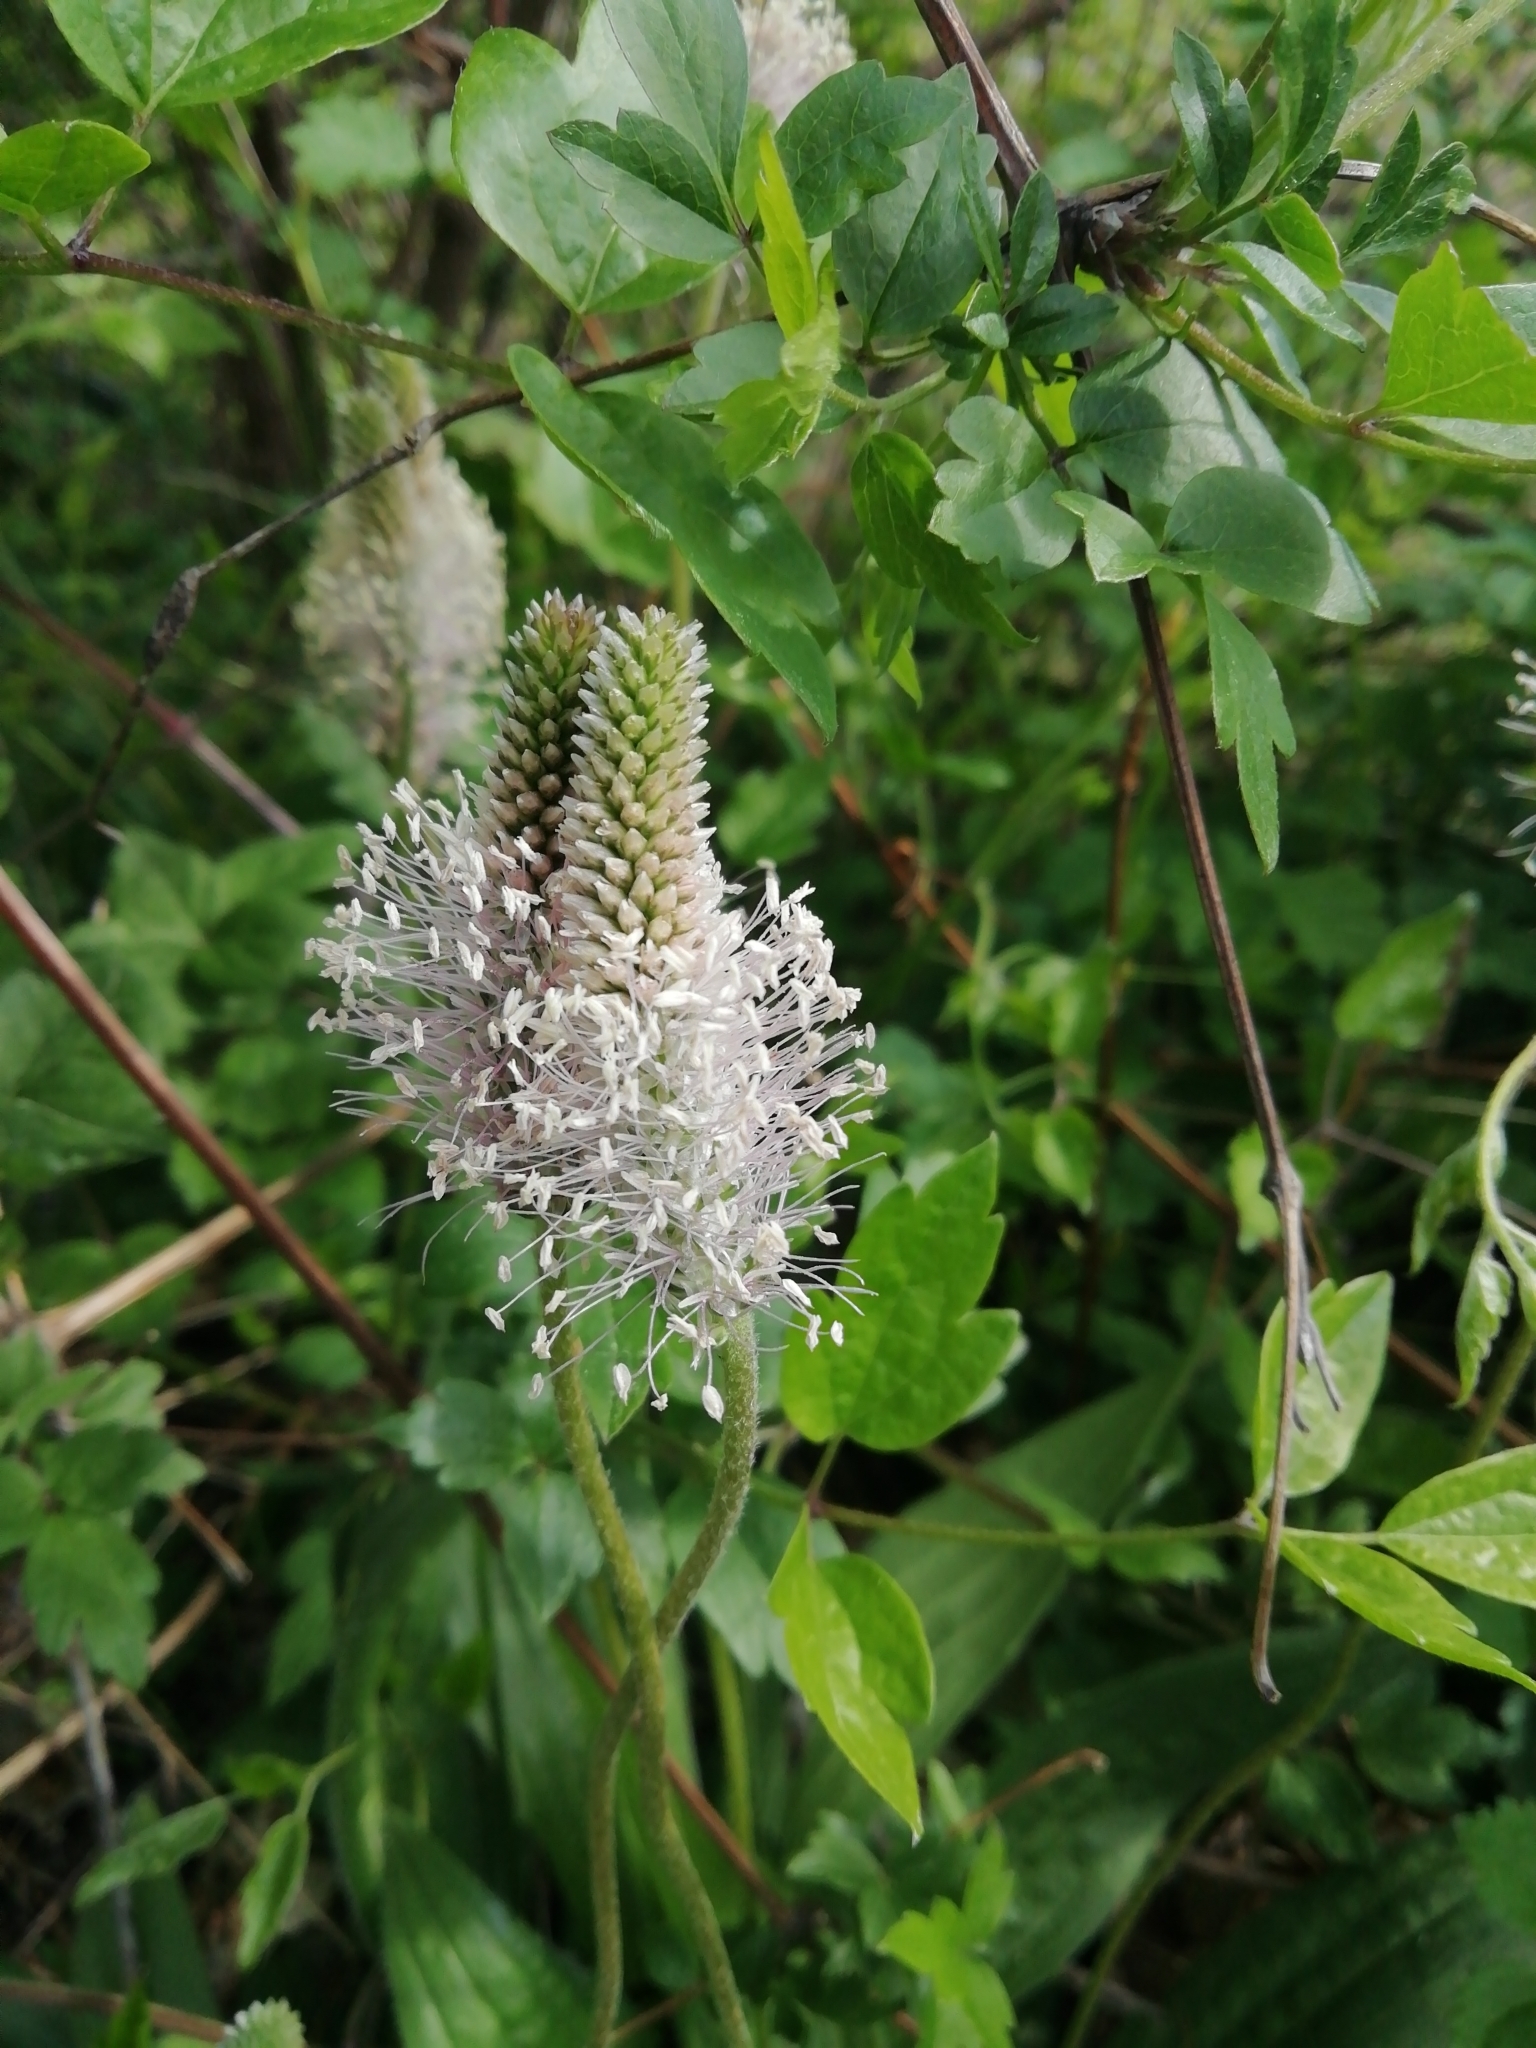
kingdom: Plantae
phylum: Tracheophyta
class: Magnoliopsida
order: Lamiales
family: Plantaginaceae
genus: Plantago
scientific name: Plantago media
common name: Hoary plantain
